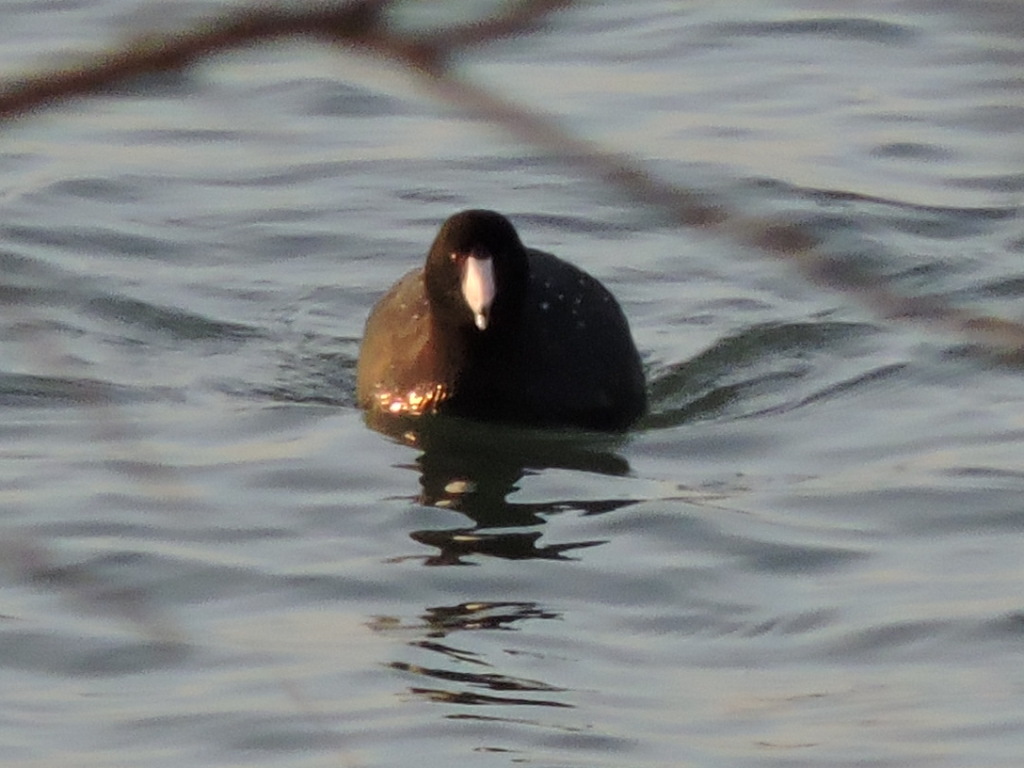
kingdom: Animalia
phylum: Chordata
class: Aves
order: Gruiformes
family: Rallidae
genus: Fulica
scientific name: Fulica americana
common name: American coot
